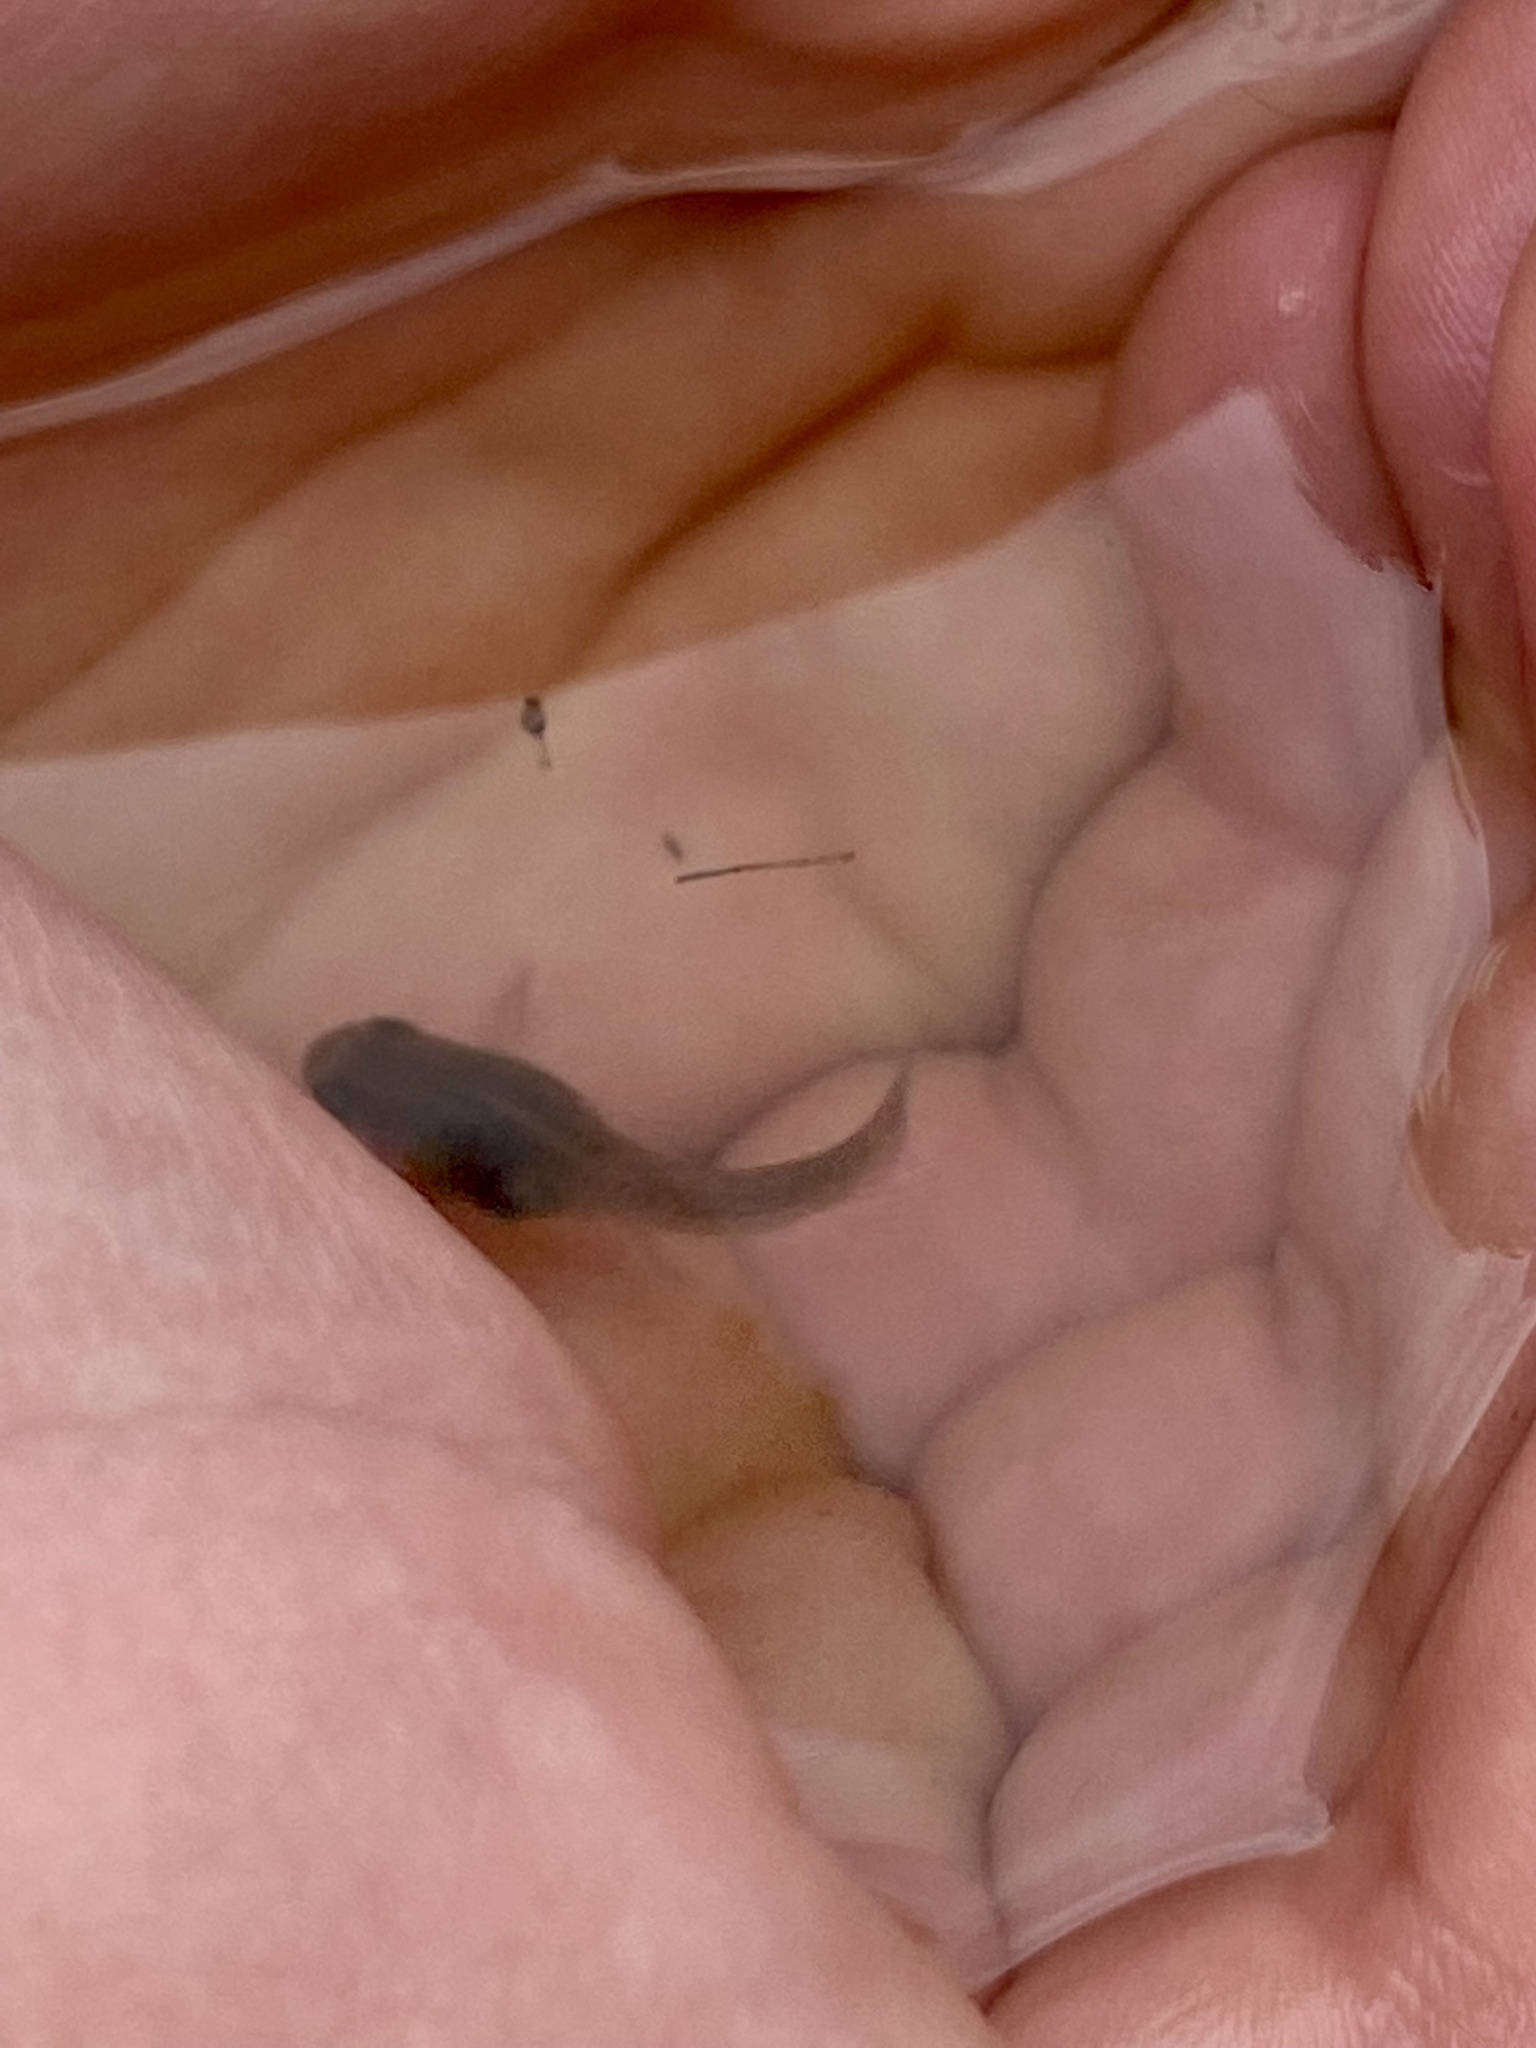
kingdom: Animalia
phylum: Chordata
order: Cyprinodontiformes
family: Poeciliidae
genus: Gambusia
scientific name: Gambusia holbrooki
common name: Eastern mosquitofish
